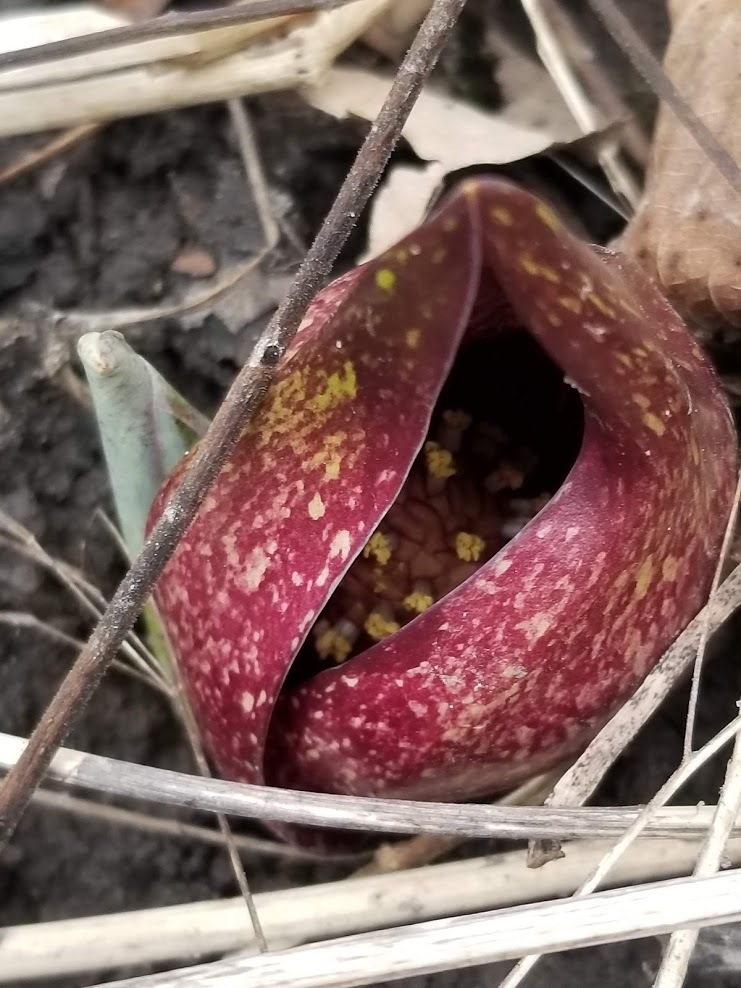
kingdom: Plantae
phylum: Tracheophyta
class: Liliopsida
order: Alismatales
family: Araceae
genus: Symplocarpus
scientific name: Symplocarpus foetidus
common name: Eastern skunk cabbage
